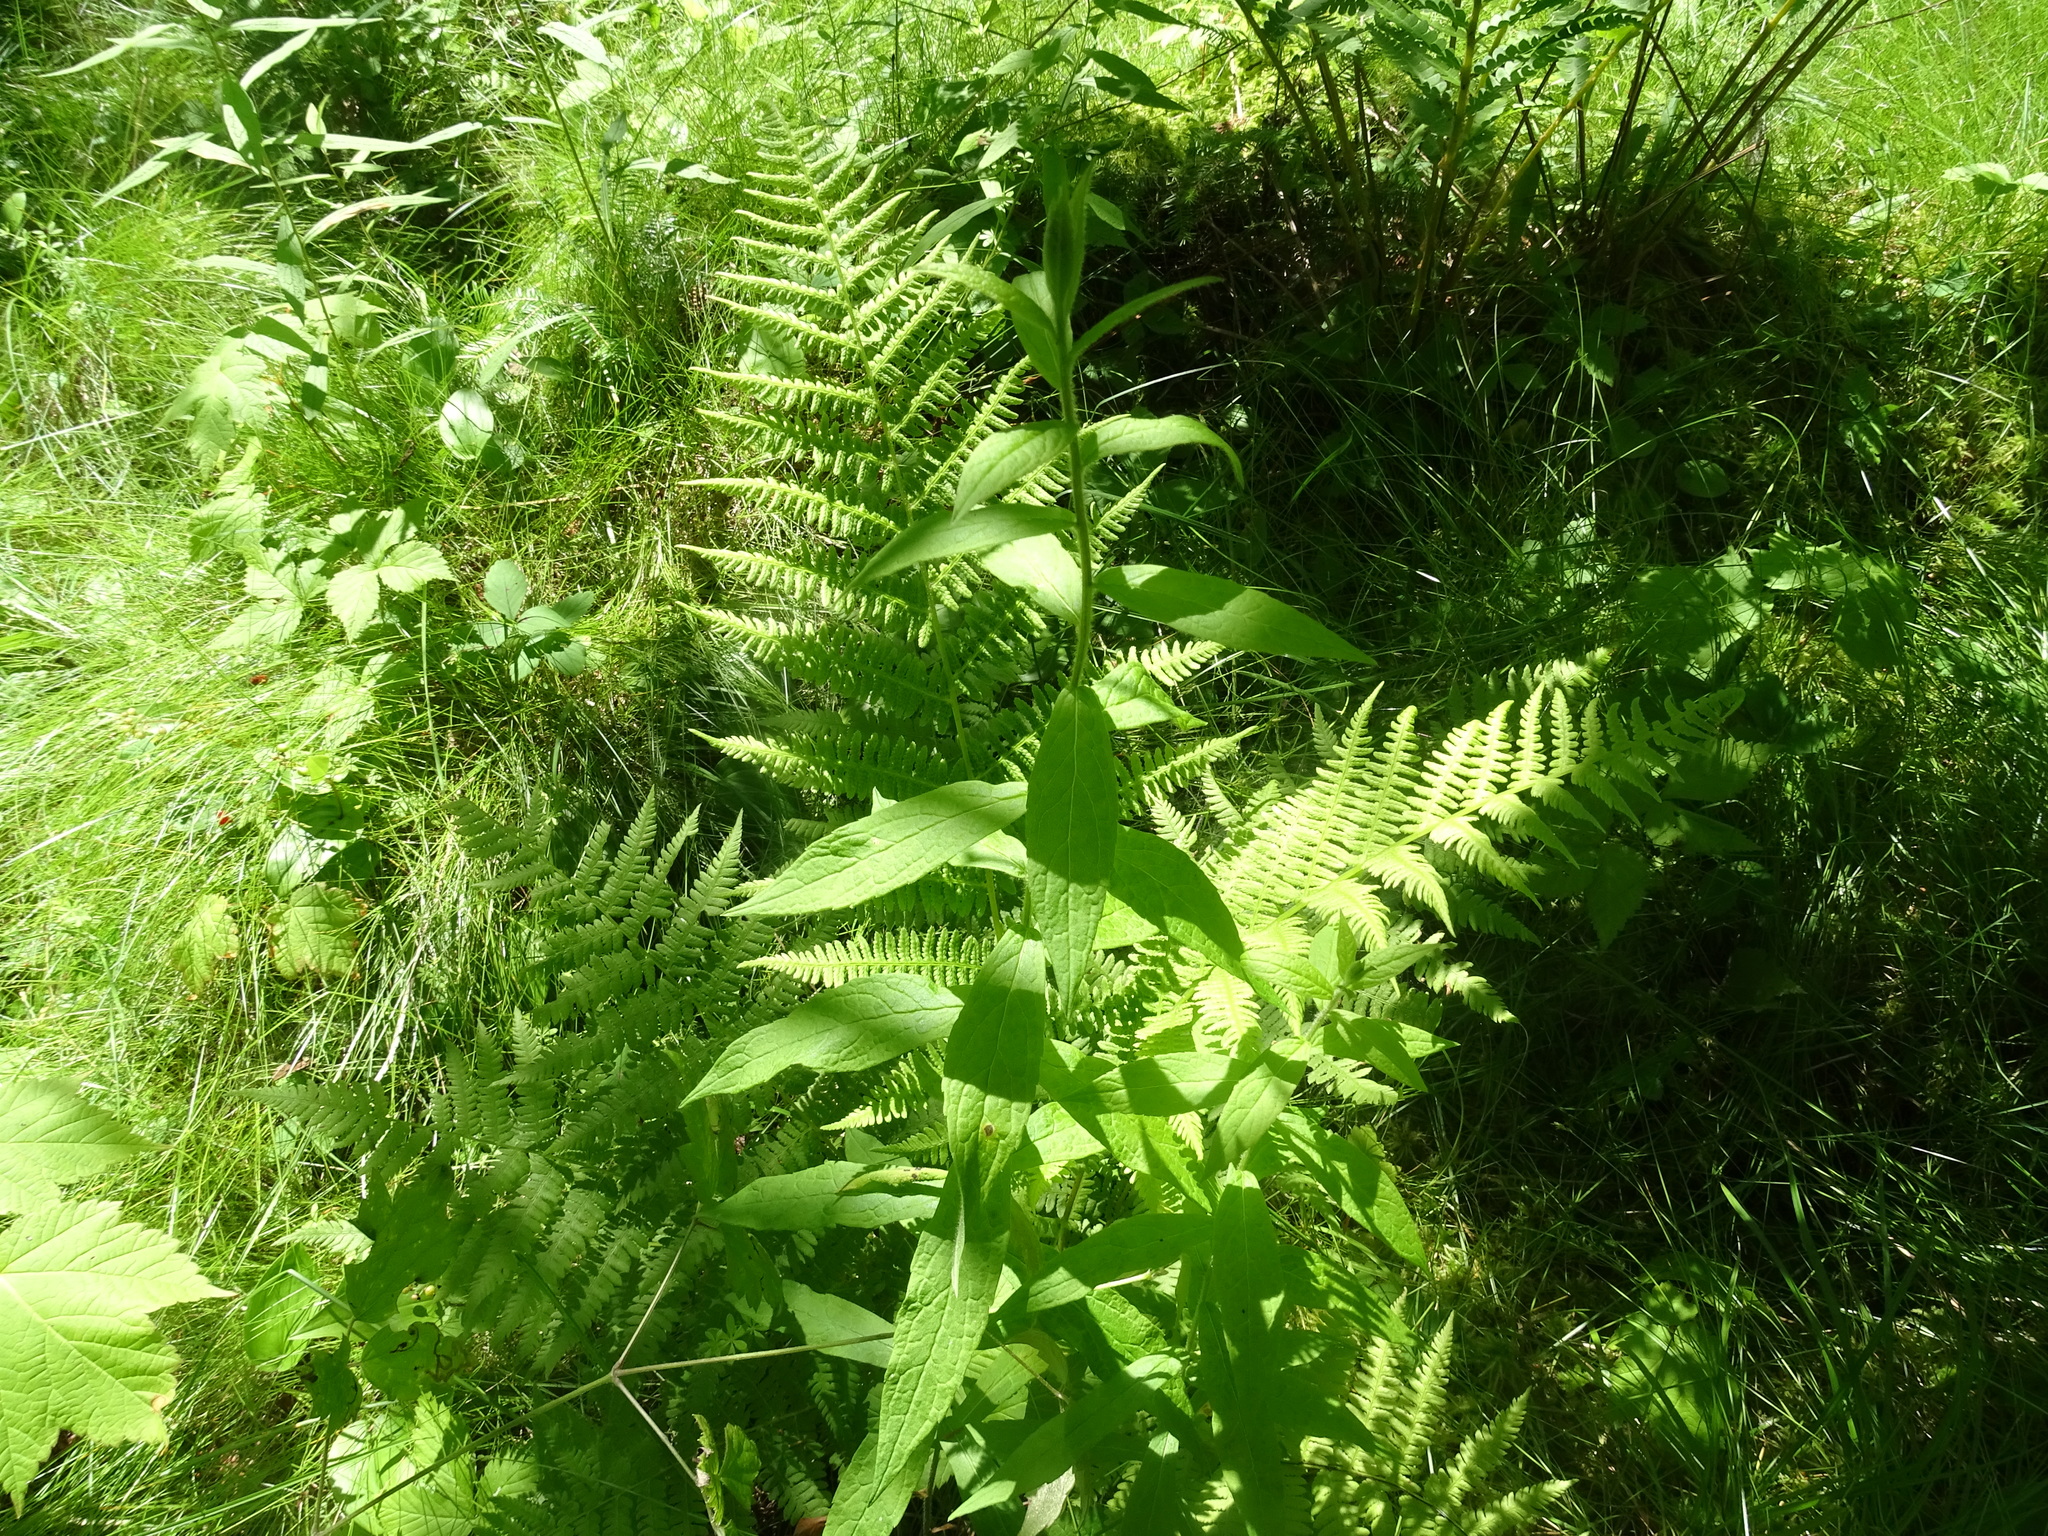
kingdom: Plantae
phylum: Tracheophyta
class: Magnoliopsida
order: Asterales
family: Asteraceae
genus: Solidago
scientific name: Solidago rugosa
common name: Rough-stemmed goldenrod
